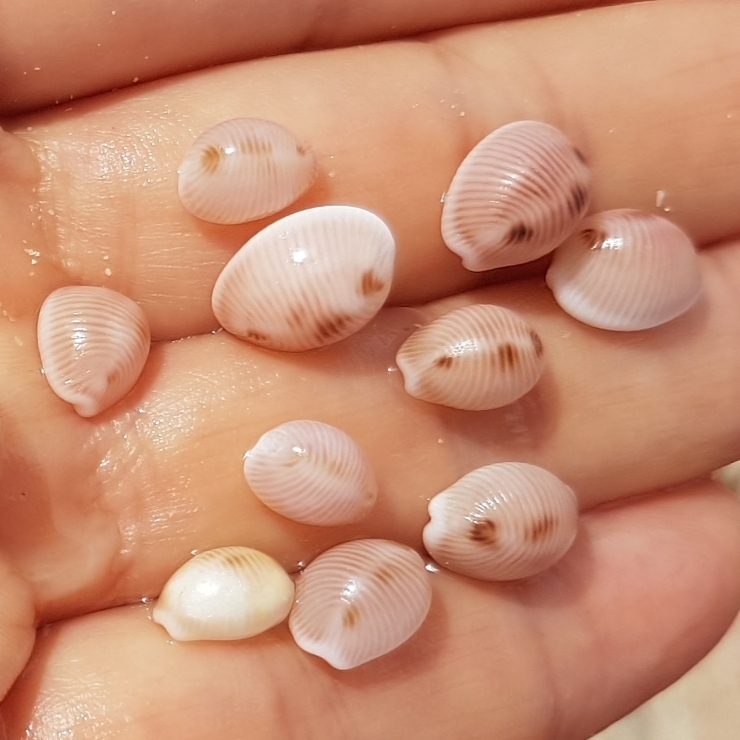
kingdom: Animalia
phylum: Mollusca
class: Gastropoda
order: Littorinimorpha
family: Triviidae
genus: Trivia
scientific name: Trivia monacha
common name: Spotted cowrie
